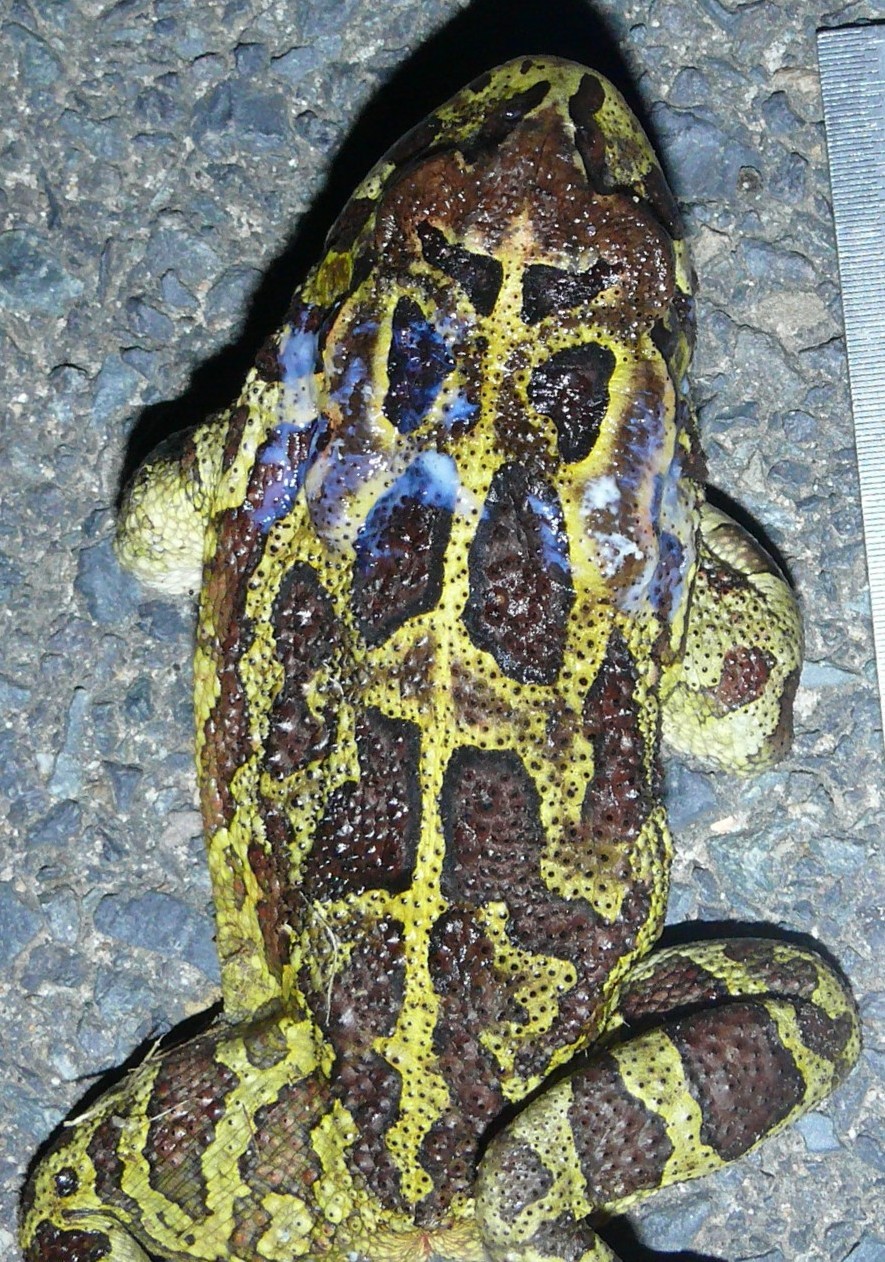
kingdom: Animalia
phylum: Chordata
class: Amphibia
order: Anura
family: Bufonidae
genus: Sclerophrys
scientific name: Sclerophrys pantherina
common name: Panther toad
